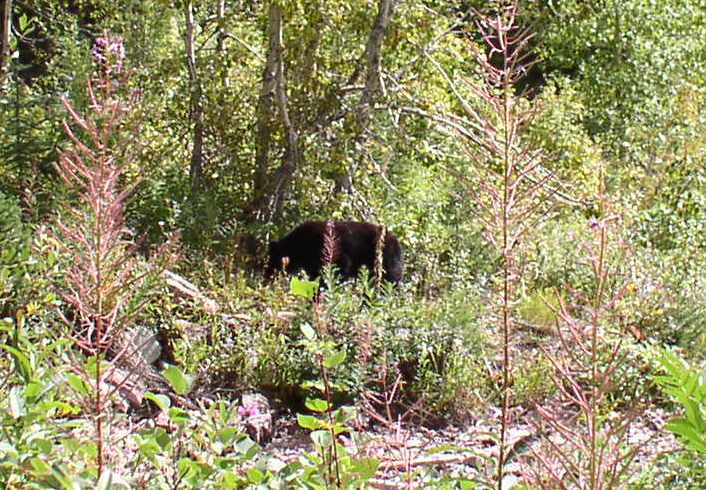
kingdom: Animalia
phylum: Chordata
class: Mammalia
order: Carnivora
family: Ursidae
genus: Ursus
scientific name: Ursus americanus
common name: American black bear
